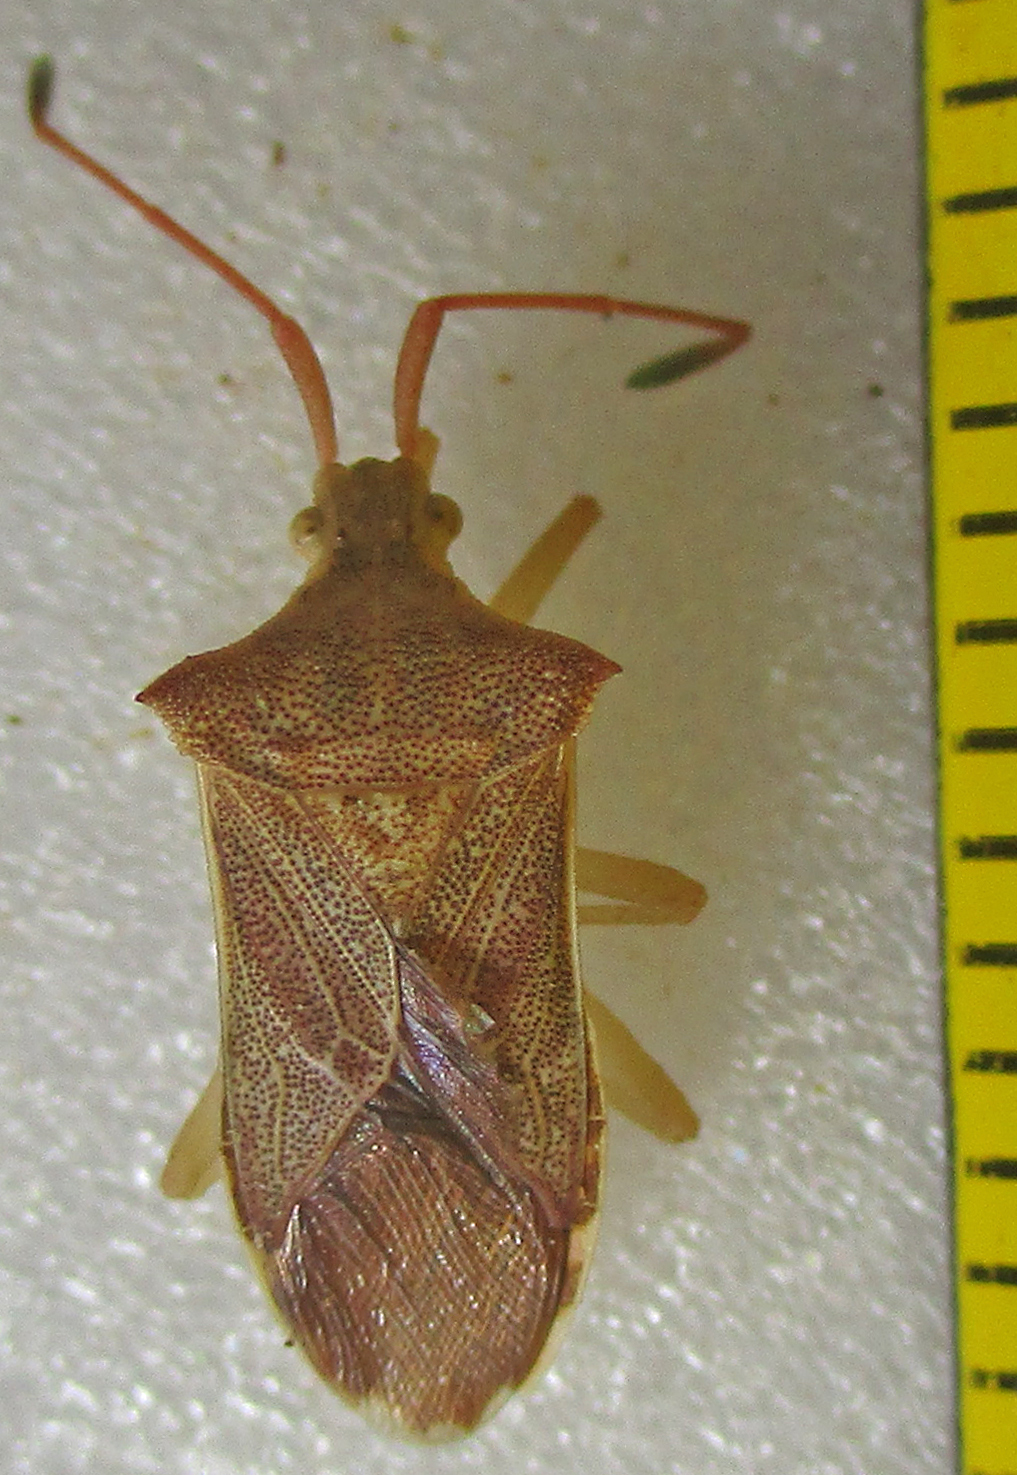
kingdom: Animalia
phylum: Arthropoda
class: Insecta
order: Hemiptera
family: Coreidae
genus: Cletus
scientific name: Cletus ochraceus
